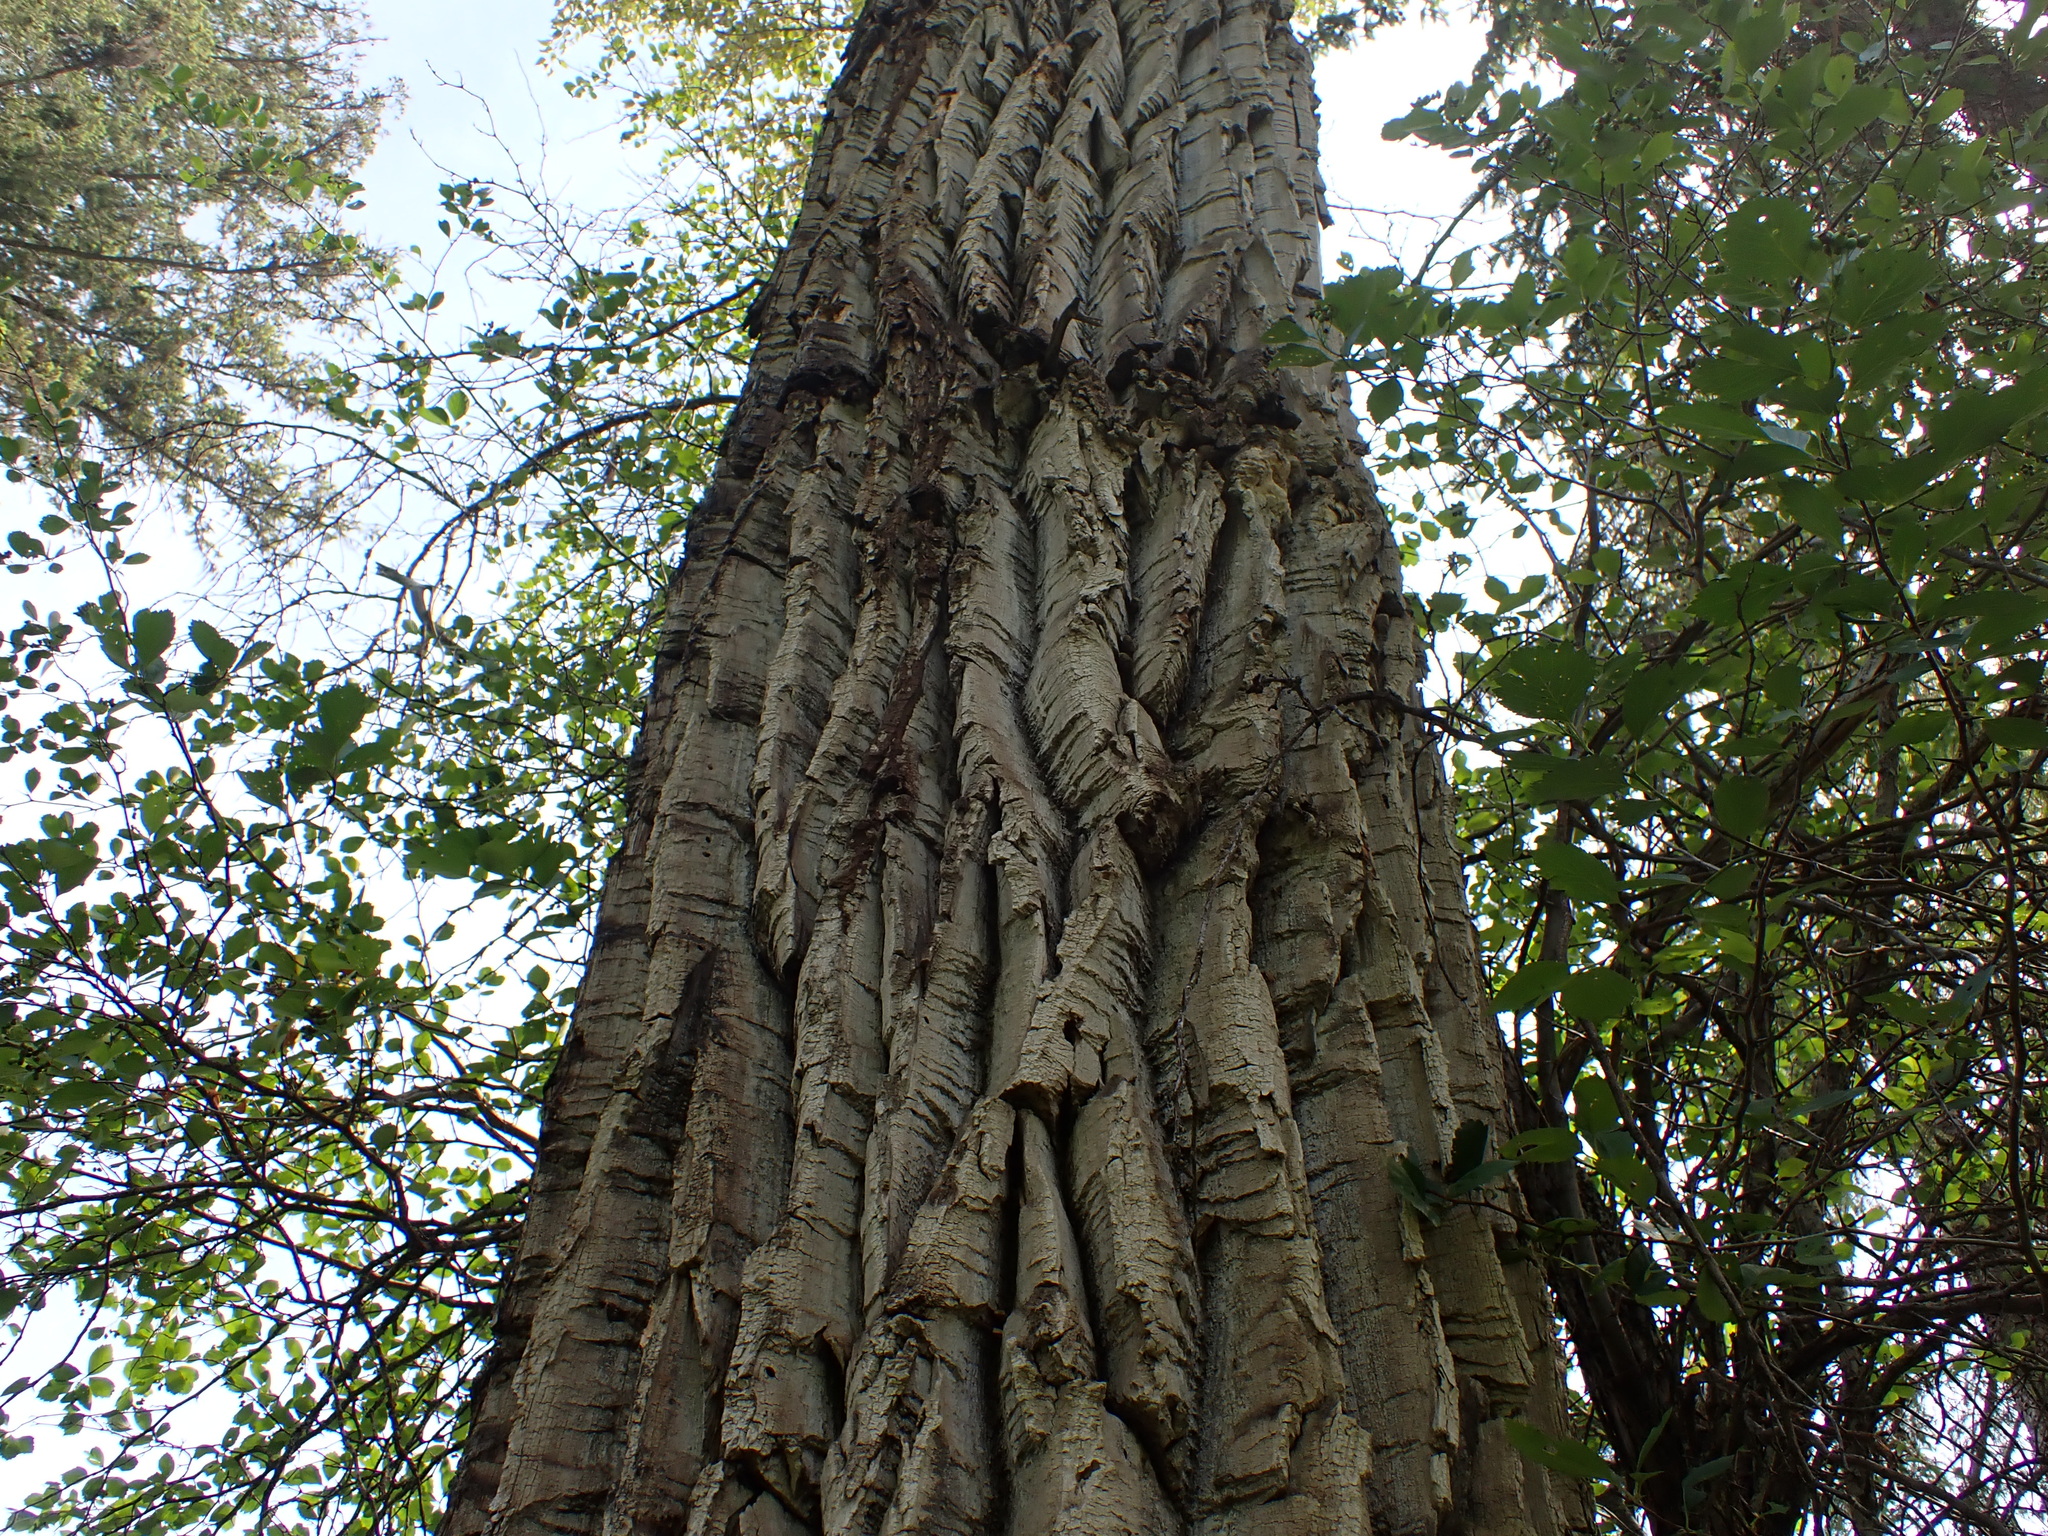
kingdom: Plantae
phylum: Tracheophyta
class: Magnoliopsida
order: Malpighiales
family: Salicaceae
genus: Populus
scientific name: Populus trichocarpa
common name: Black cottonwood
